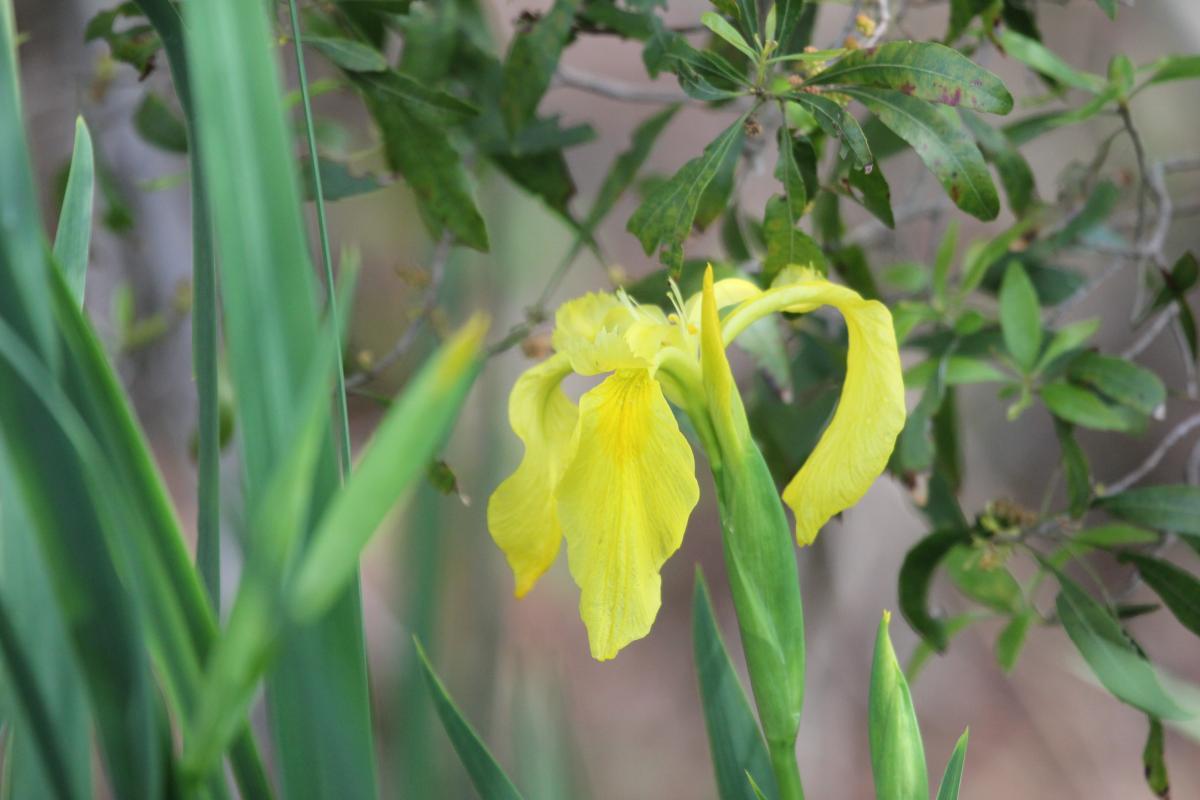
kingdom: Plantae
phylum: Tracheophyta
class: Liliopsida
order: Asparagales
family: Iridaceae
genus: Iris
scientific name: Iris pseudacorus
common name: Yellow flag
